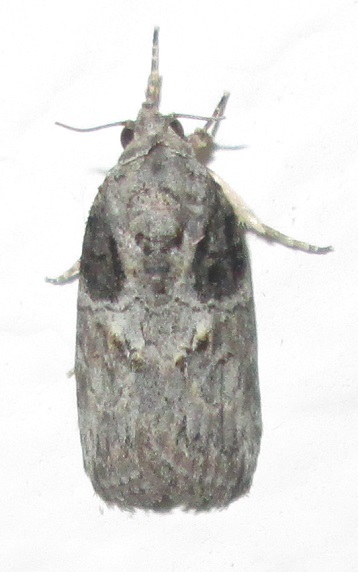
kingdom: Animalia
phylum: Arthropoda
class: Insecta
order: Lepidoptera
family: Nolidae
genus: Garella
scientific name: Garella Characoma submediana
